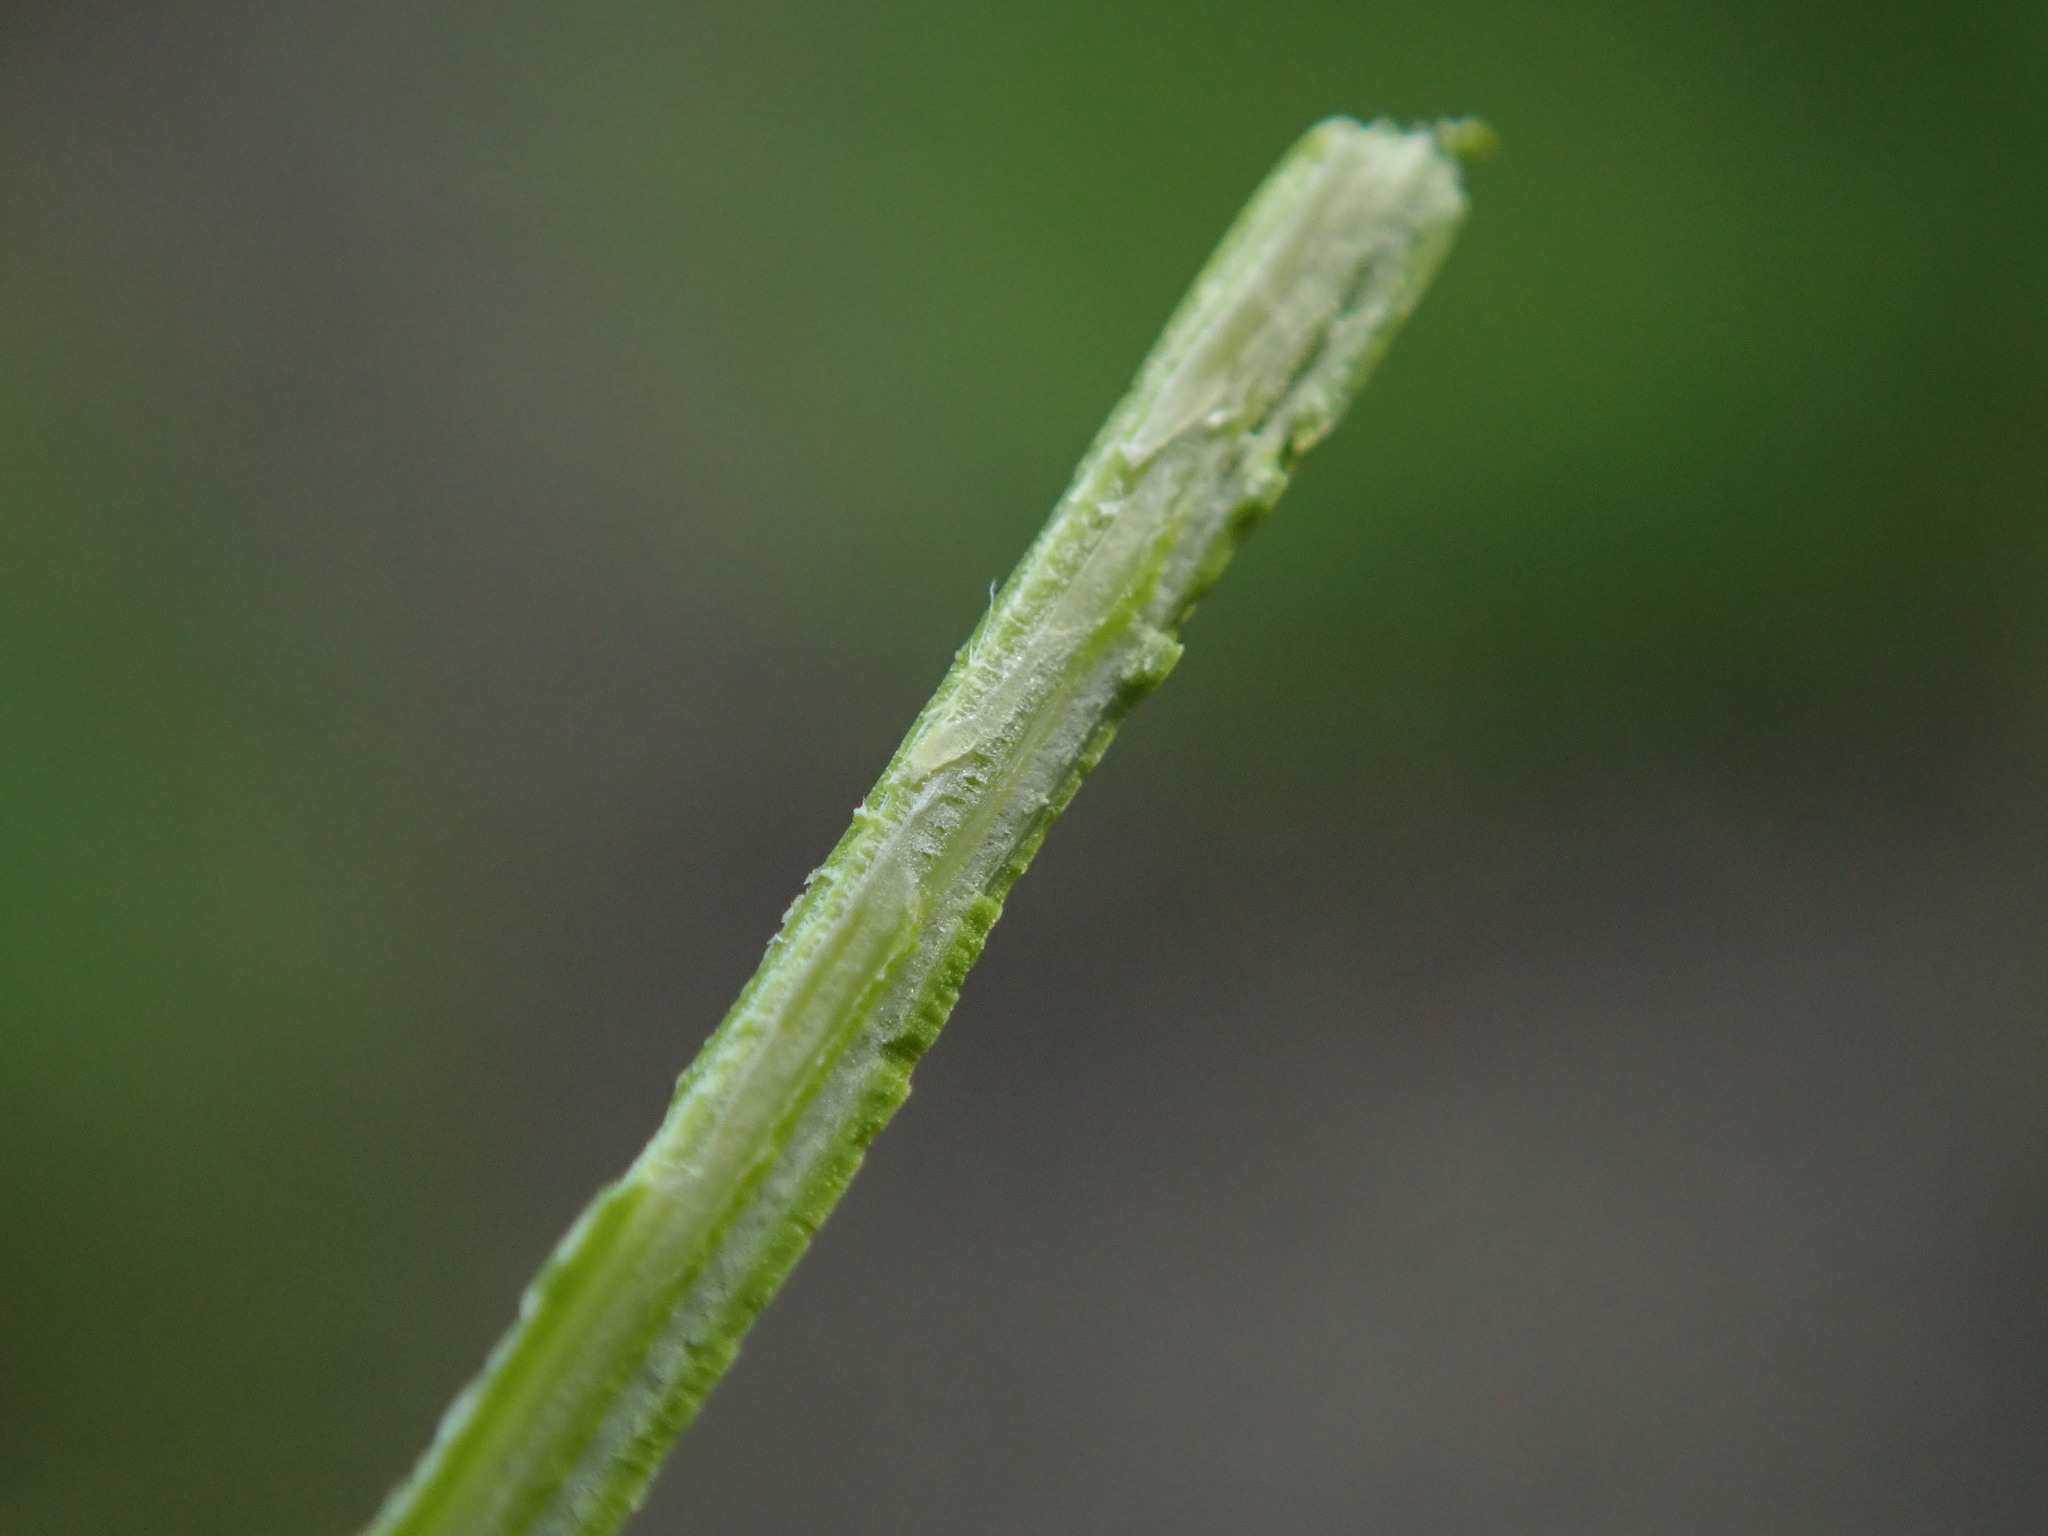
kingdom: Plantae
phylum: Tracheophyta
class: Liliopsida
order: Poales
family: Juncaceae
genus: Juncus
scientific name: Juncus squarrosus
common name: Heath rush
